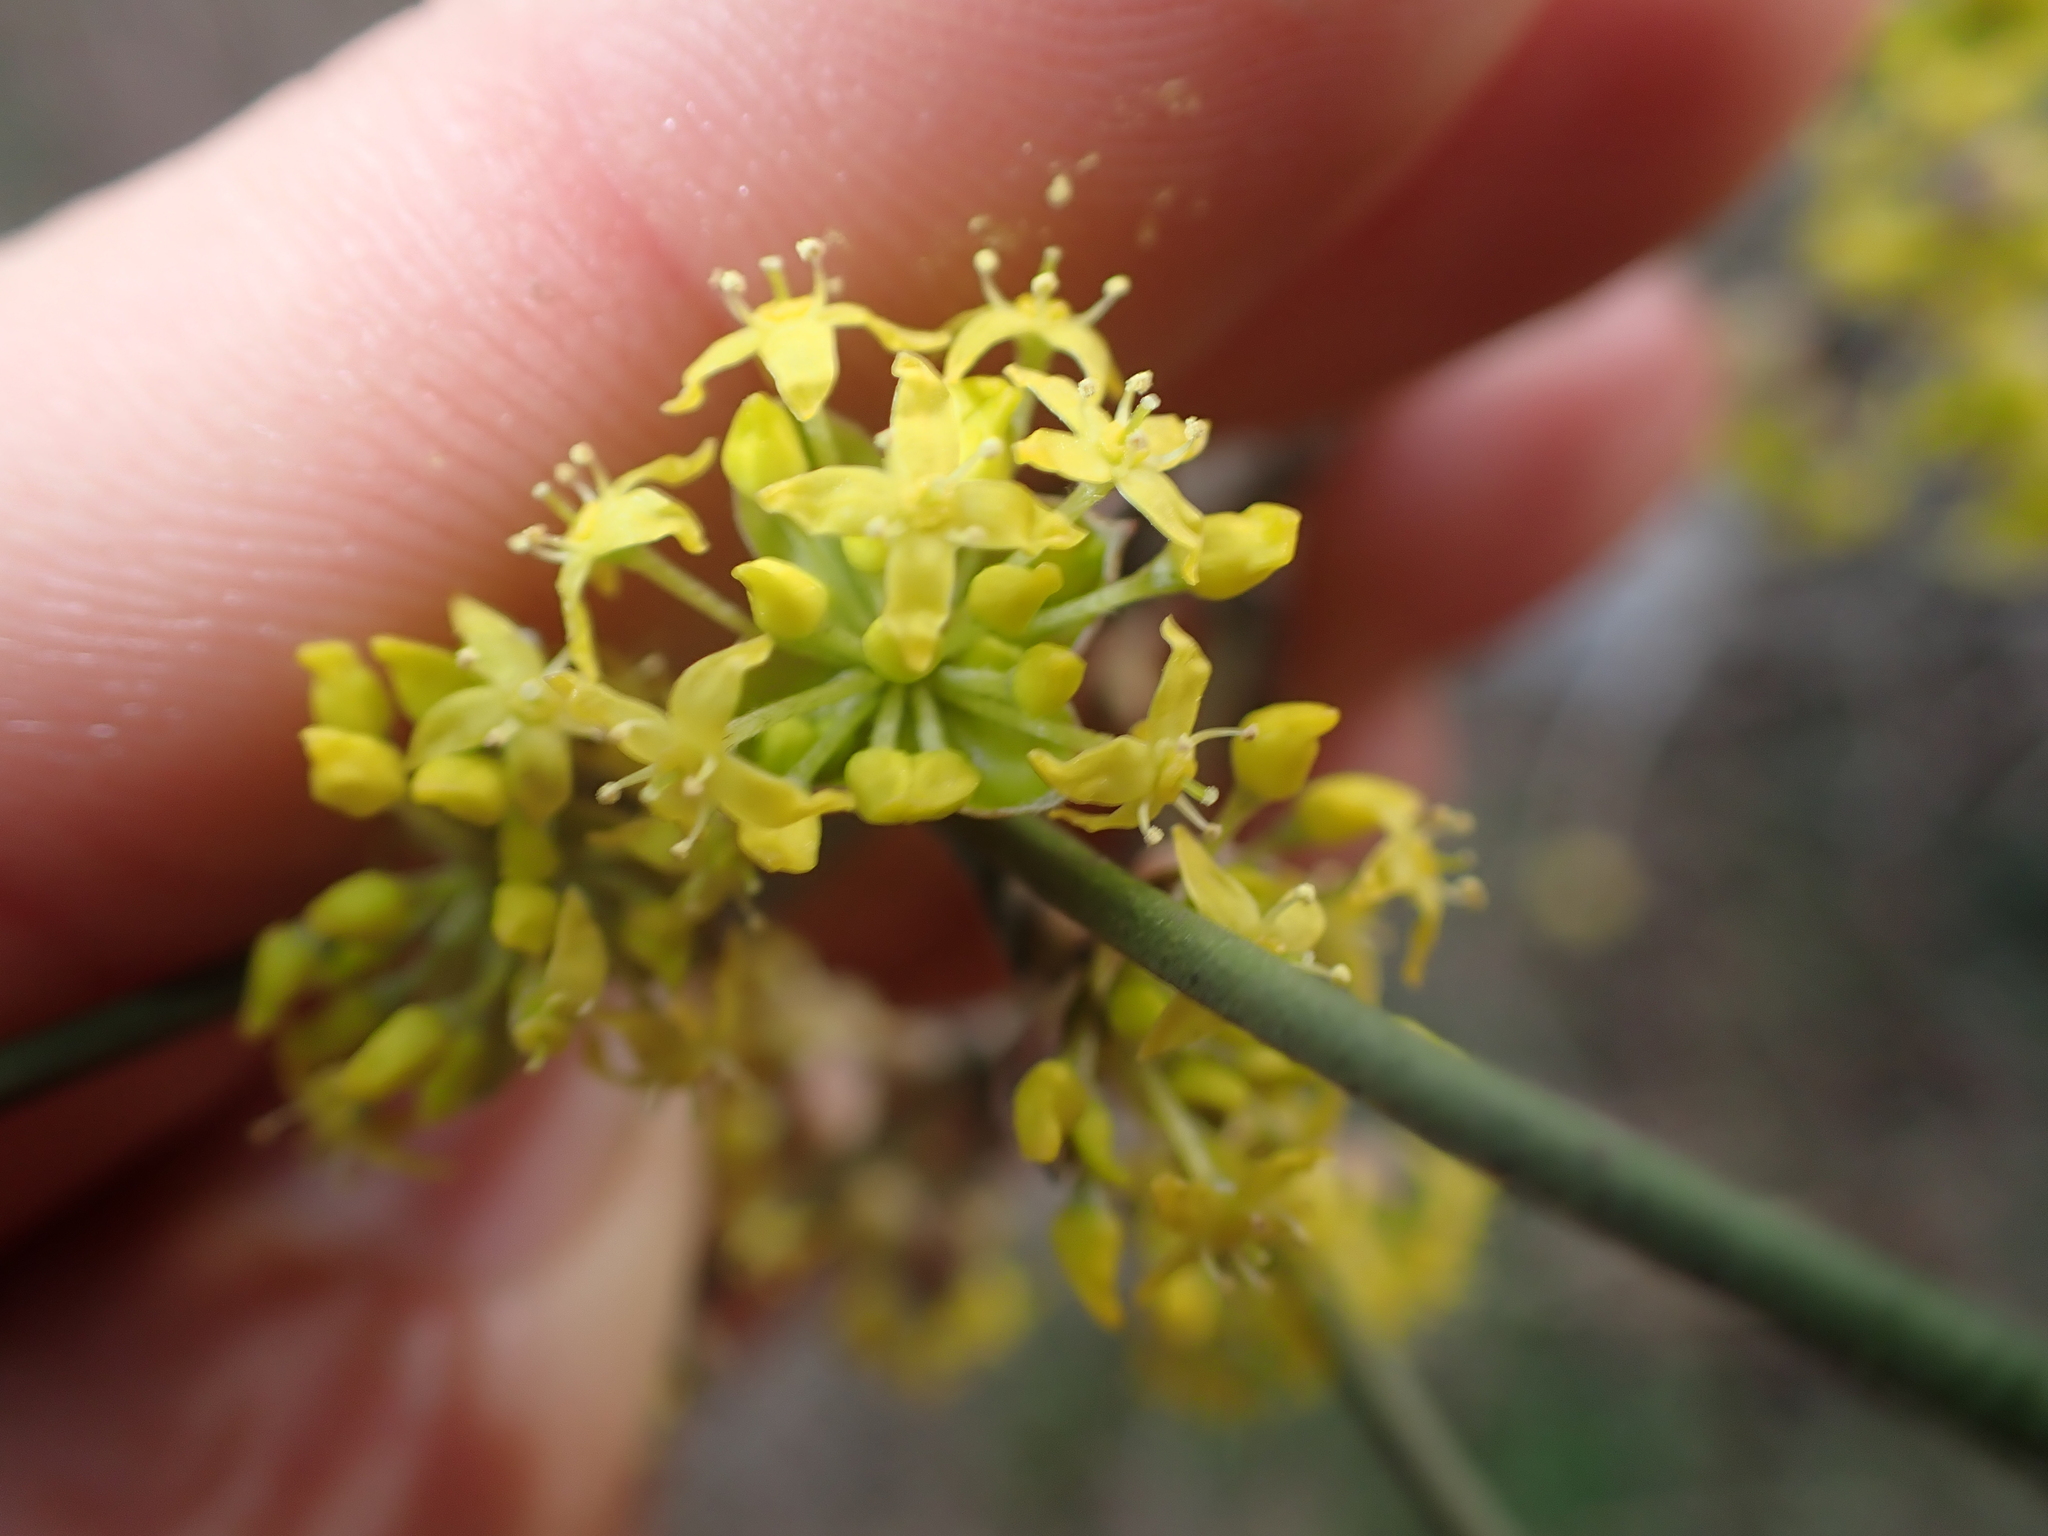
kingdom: Plantae
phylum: Tracheophyta
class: Magnoliopsida
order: Cornales
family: Cornaceae
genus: Cornus
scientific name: Cornus mas
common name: Cornelian-cherry
